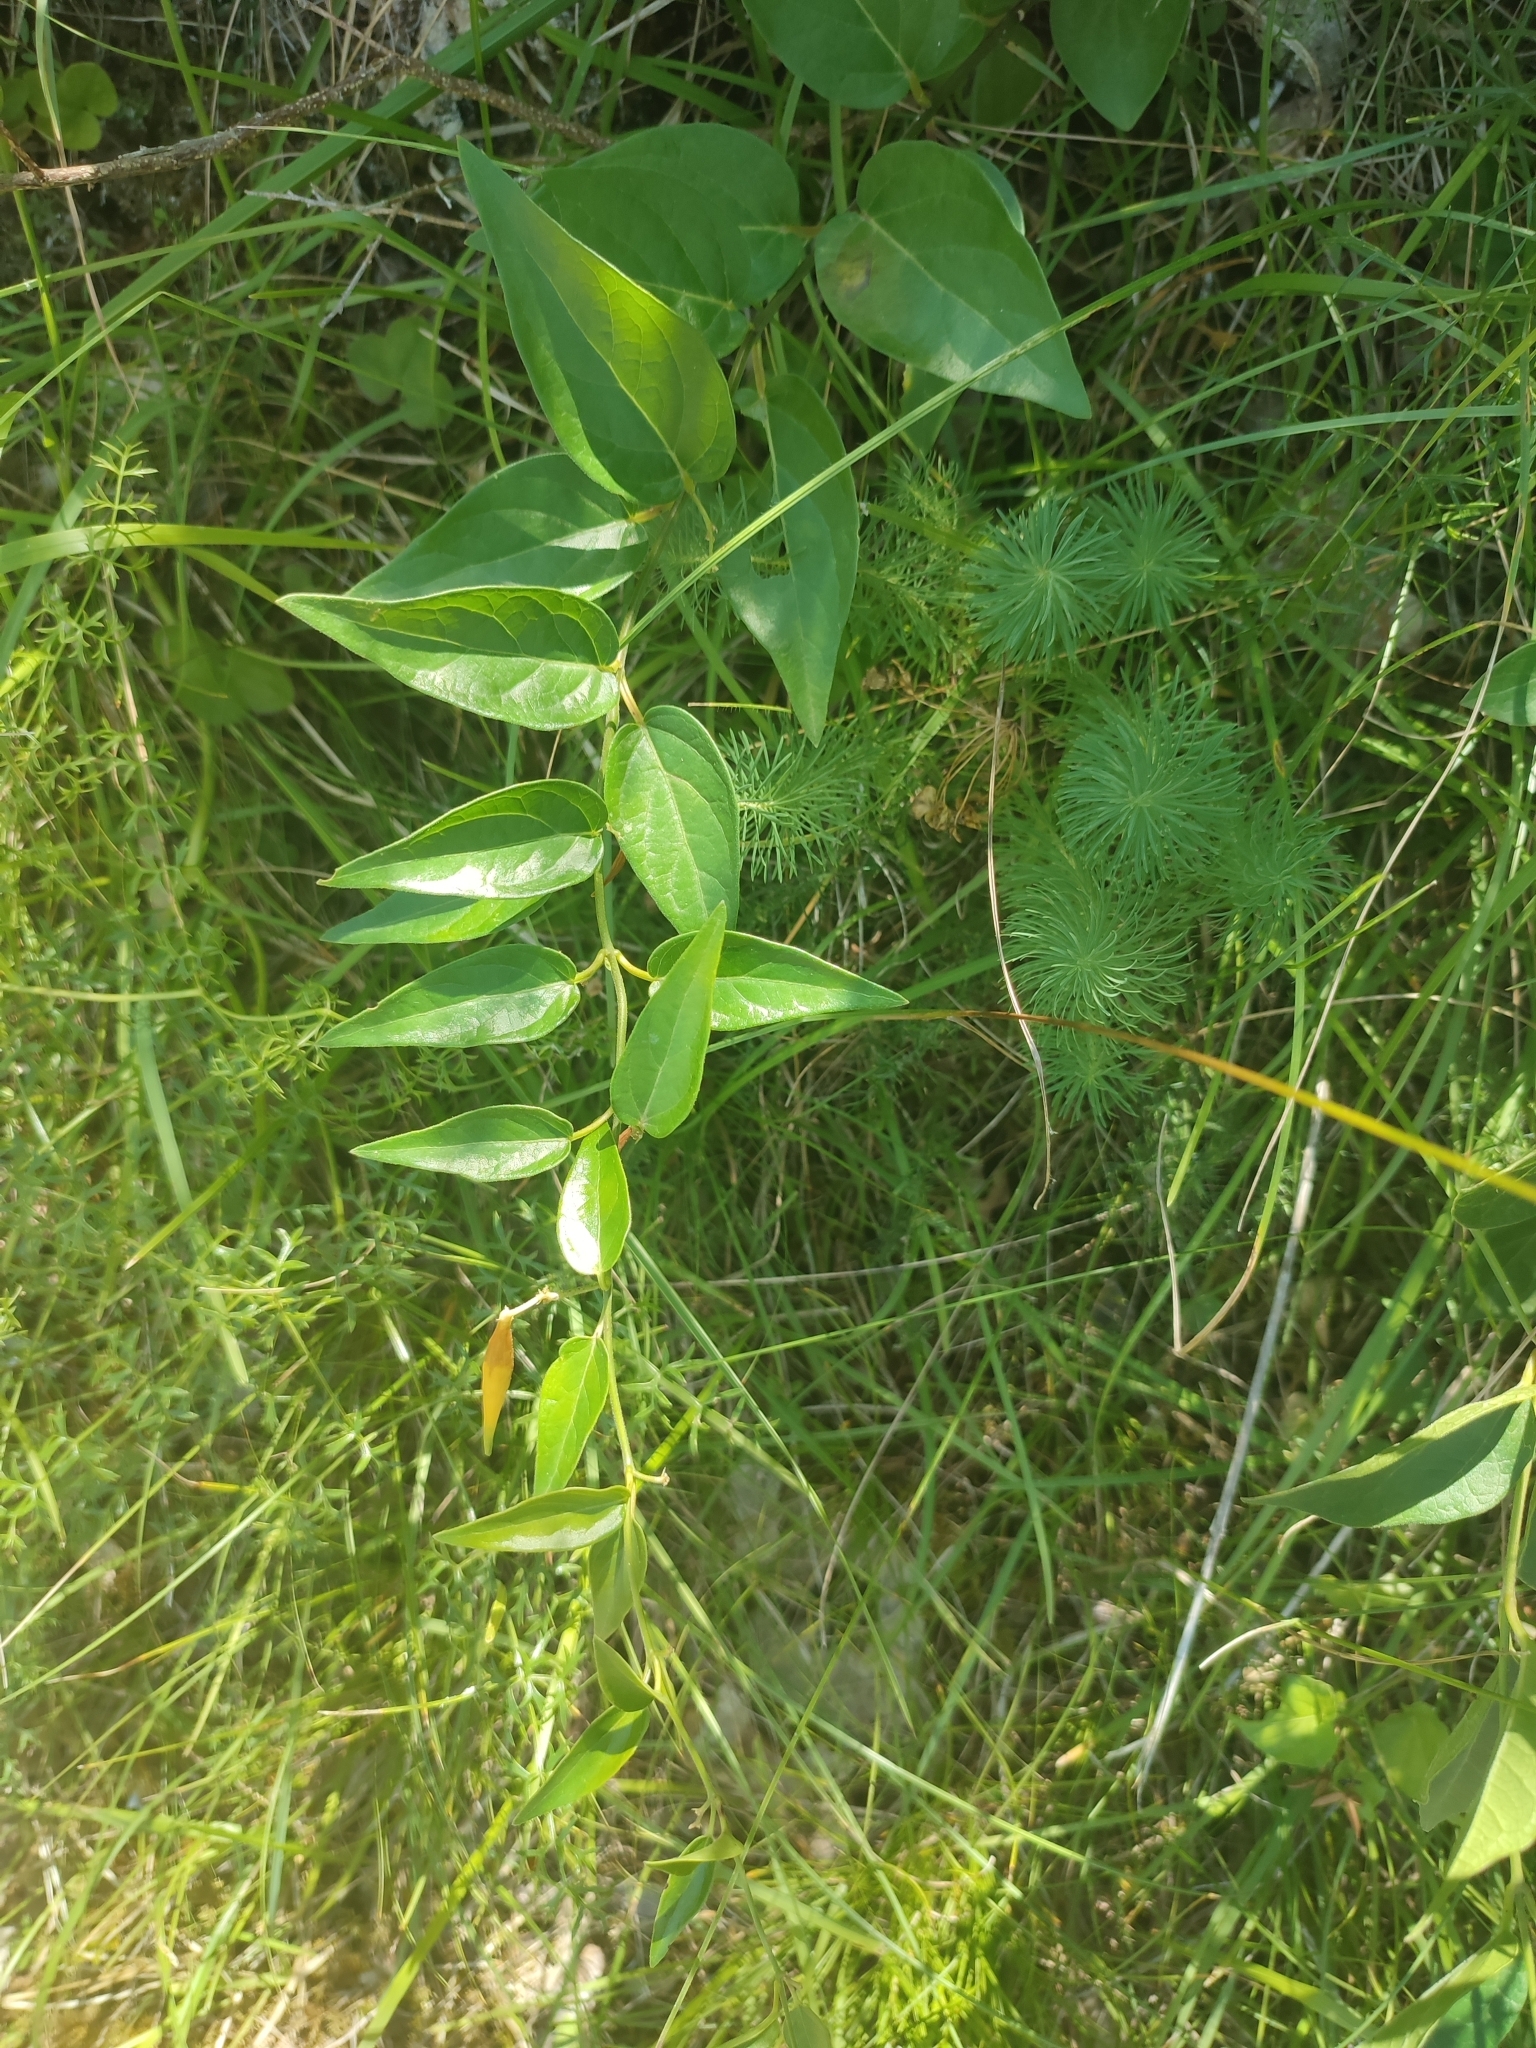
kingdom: Plantae
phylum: Tracheophyta
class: Magnoliopsida
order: Gentianales
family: Apocynaceae
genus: Vincetoxicum
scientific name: Vincetoxicum hirundinaria
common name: White swallowwort
